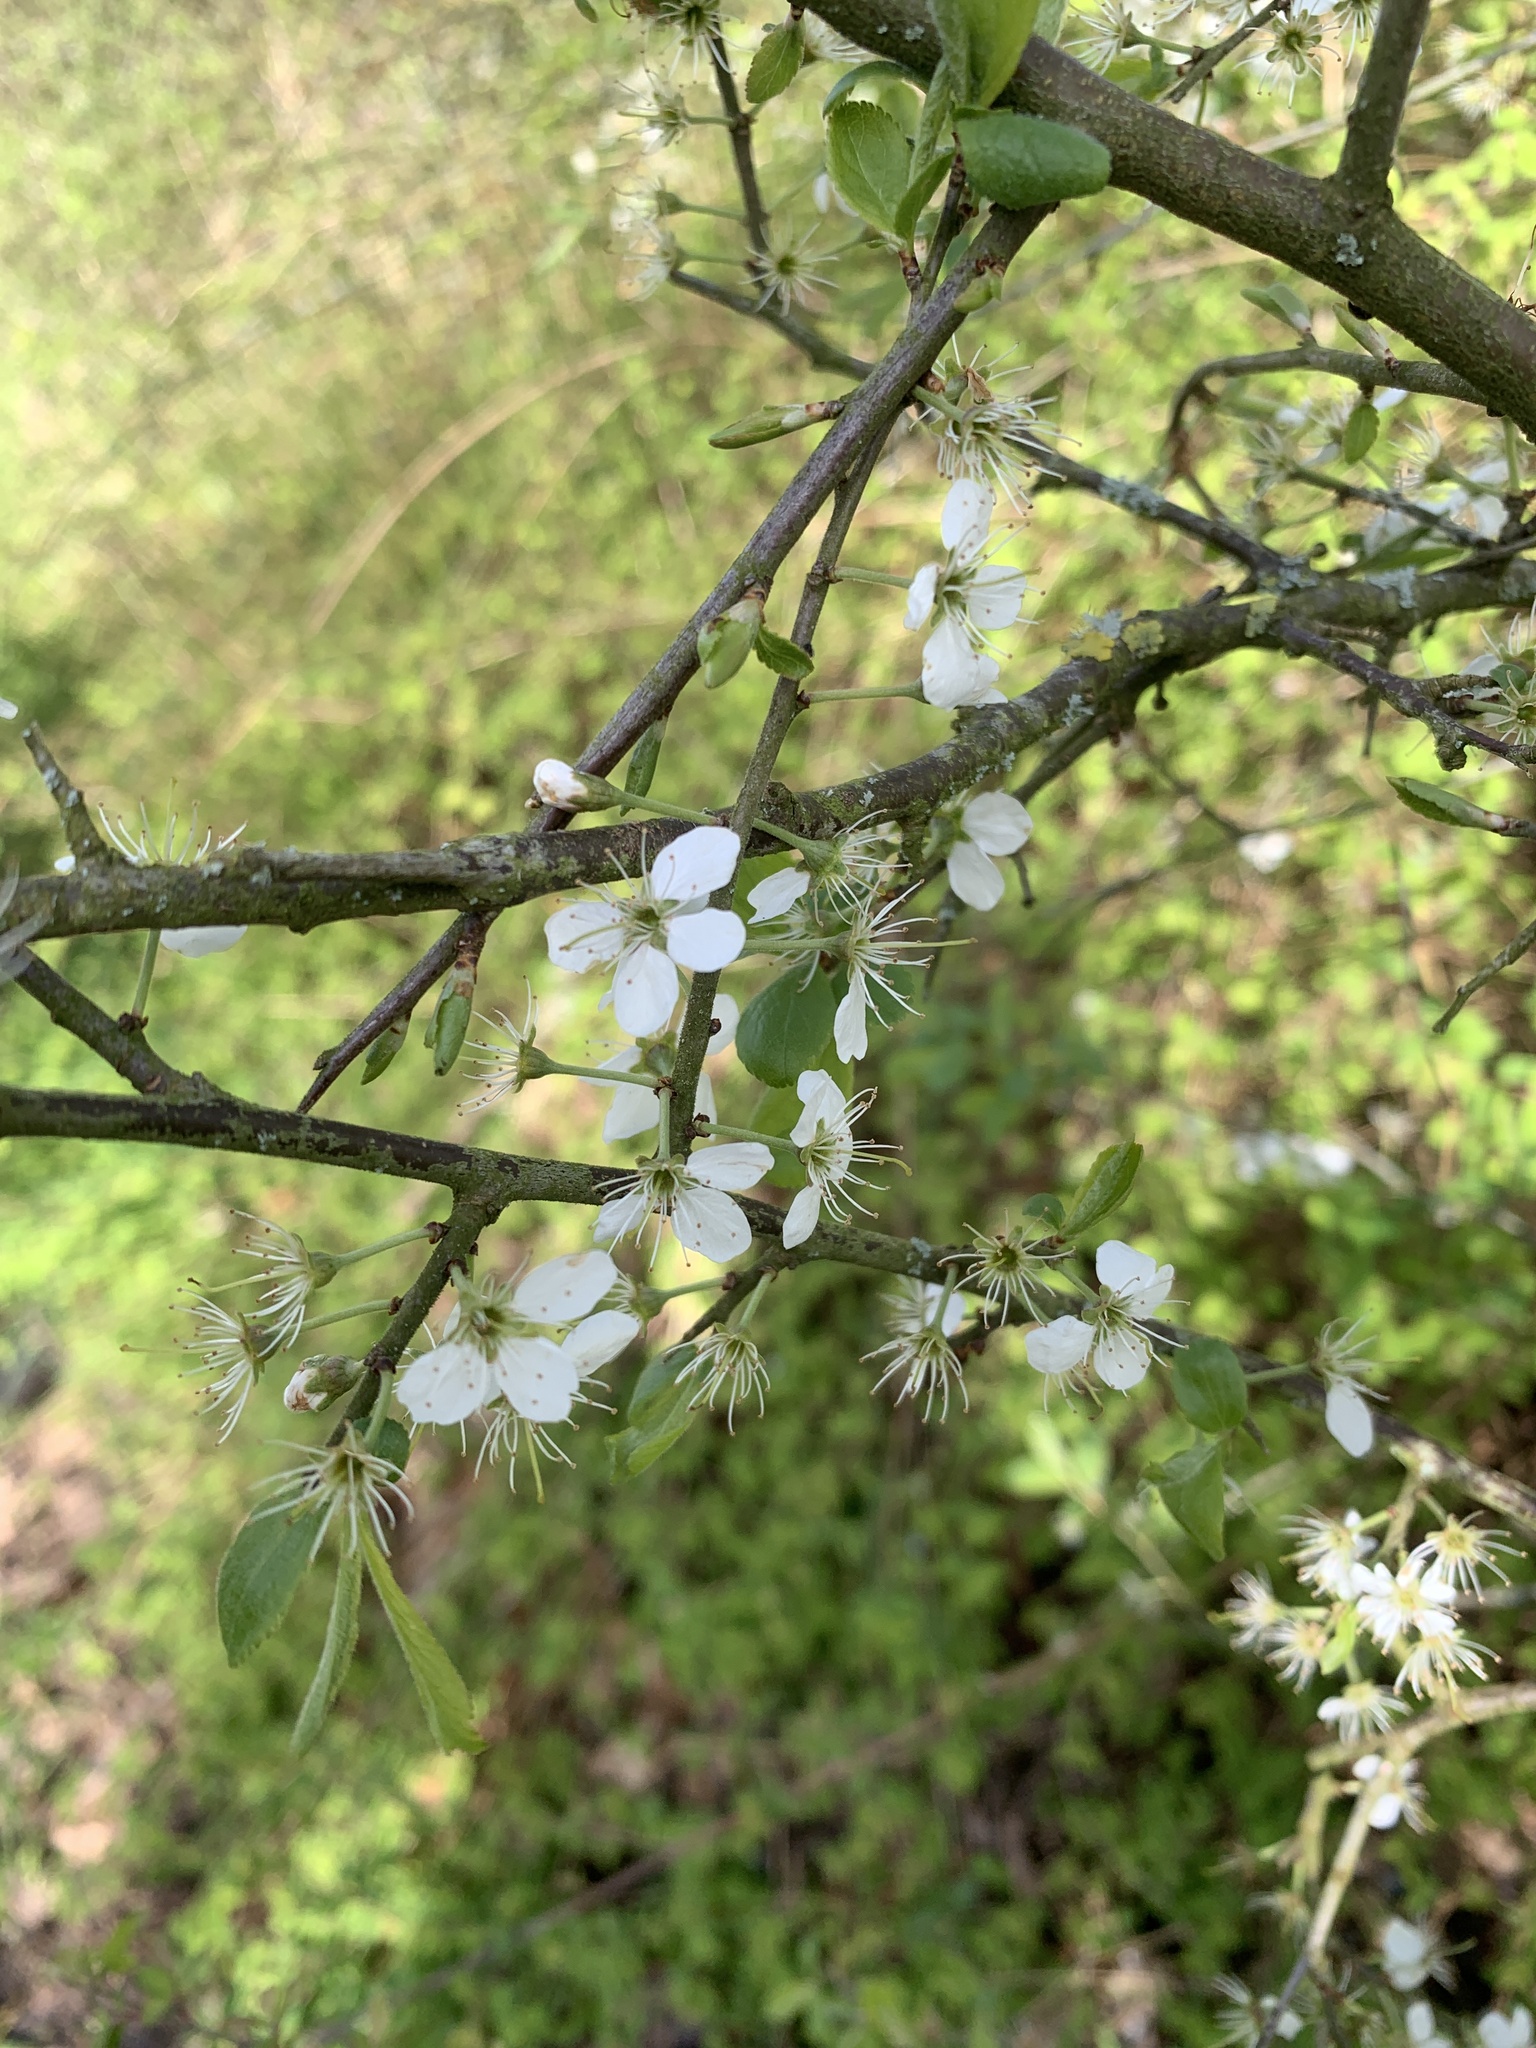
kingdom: Plantae
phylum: Tracheophyta
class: Magnoliopsida
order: Rosales
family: Rosaceae
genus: Prunus
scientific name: Prunus spinosa
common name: Blackthorn
